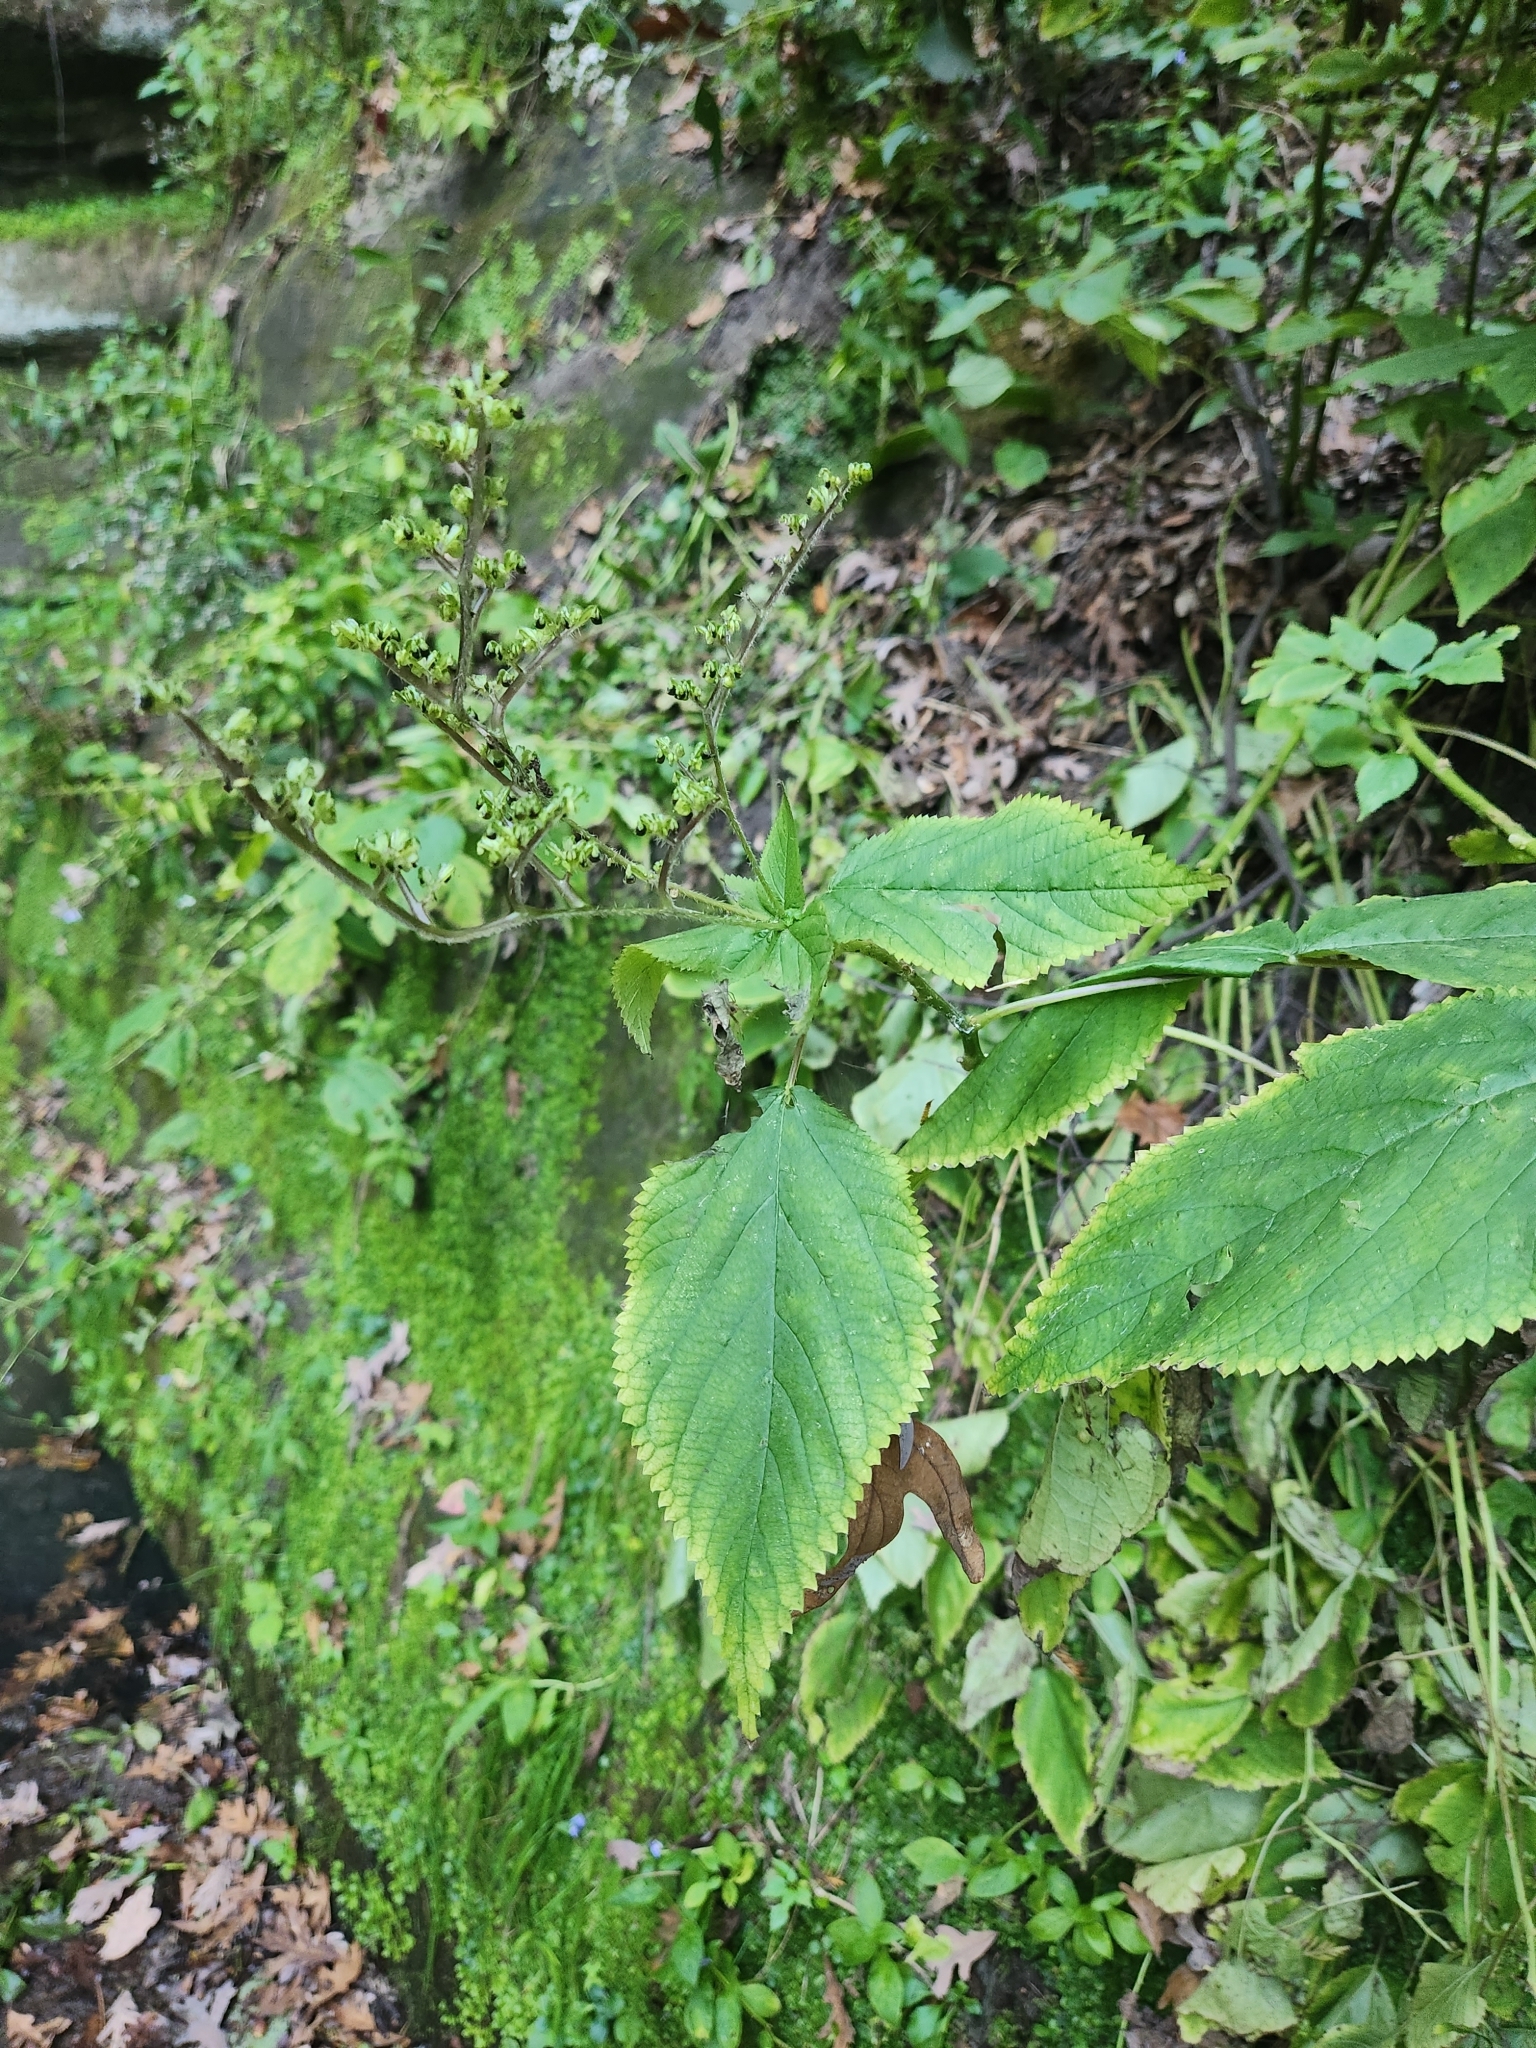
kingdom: Plantae
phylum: Tracheophyta
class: Magnoliopsida
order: Rosales
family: Urticaceae
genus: Laportea
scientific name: Laportea canadensis
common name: Canada nettle
